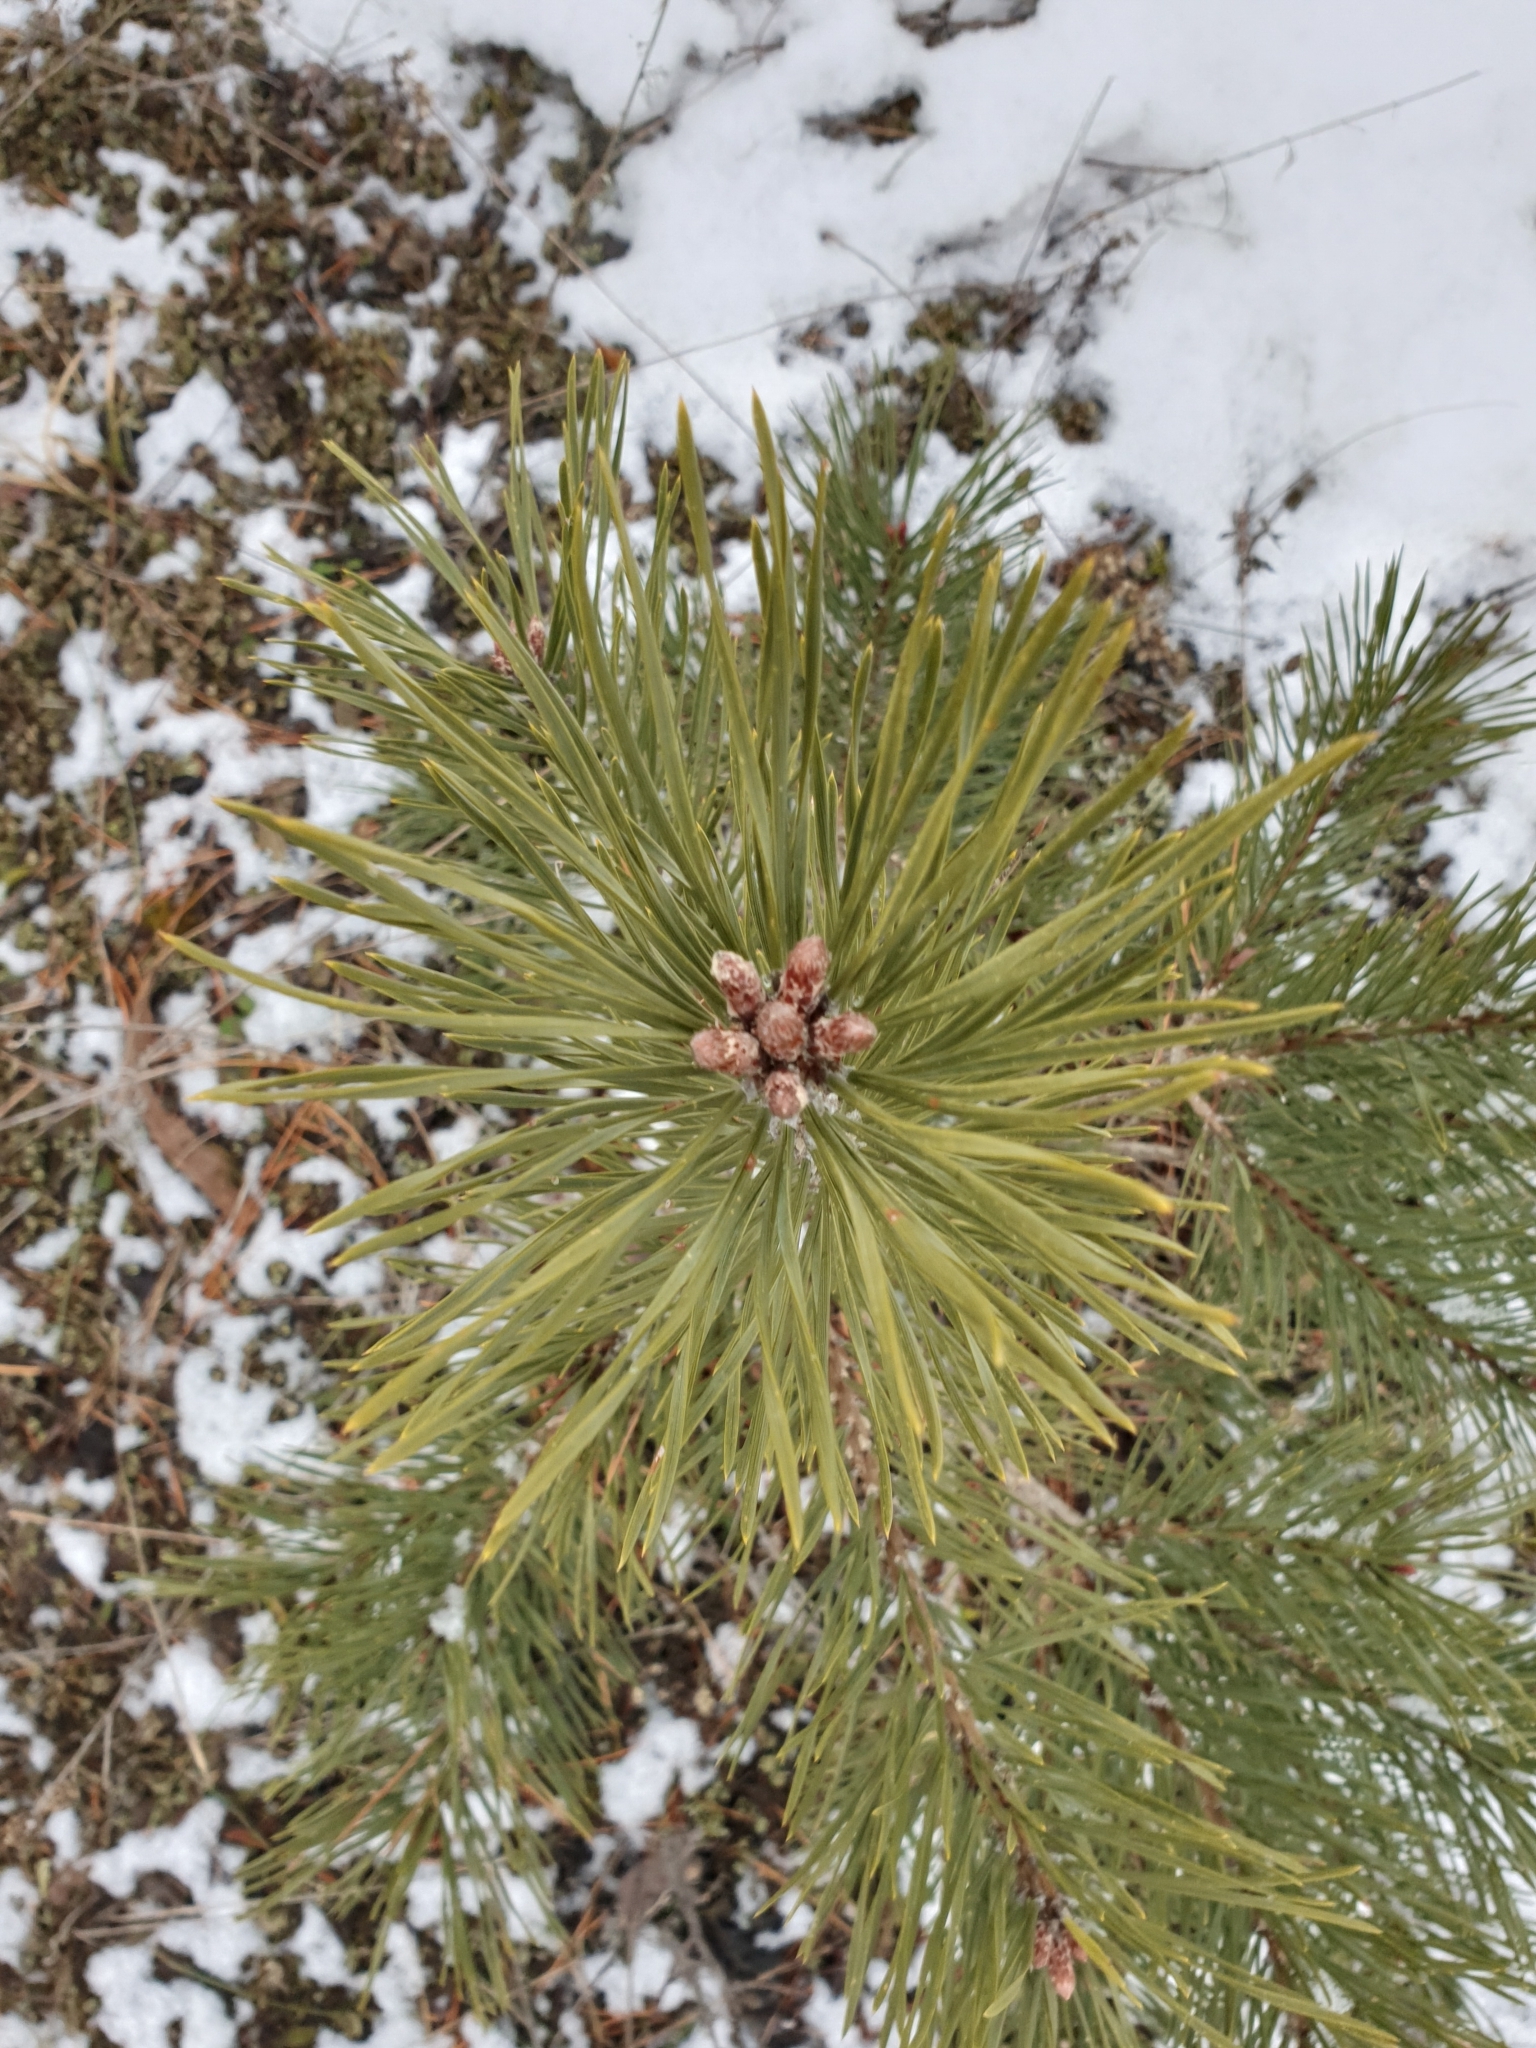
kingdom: Plantae
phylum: Tracheophyta
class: Pinopsida
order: Pinales
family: Pinaceae
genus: Pinus
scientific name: Pinus sylvestris
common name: Scots pine
